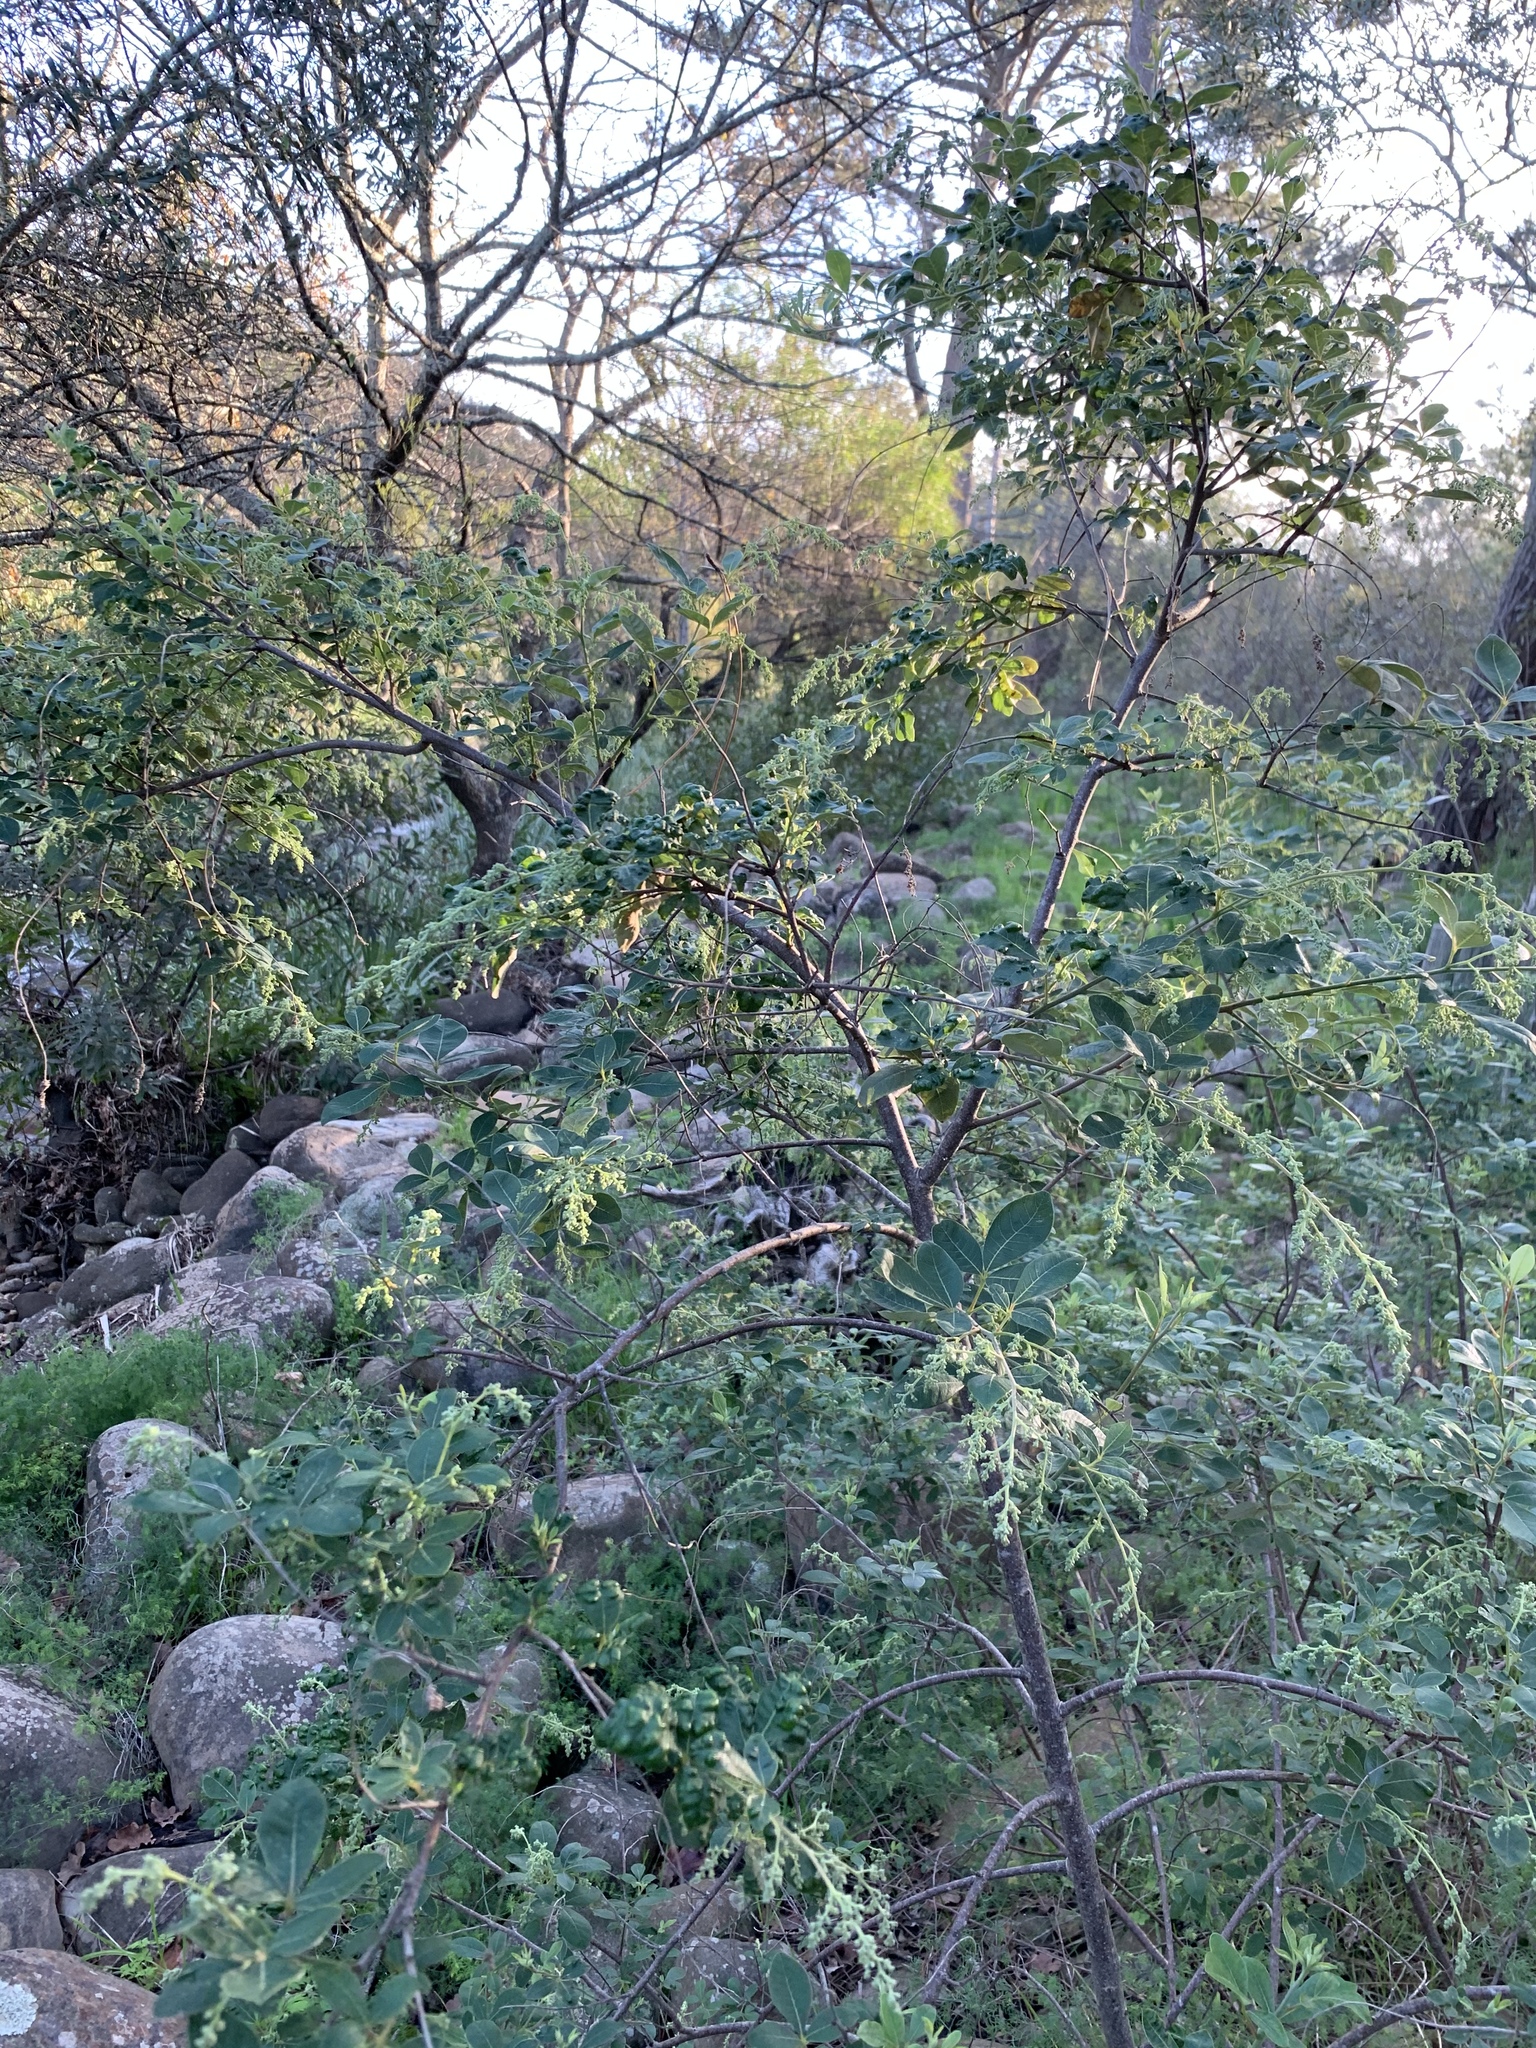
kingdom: Plantae
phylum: Tracheophyta
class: Magnoliopsida
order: Sapindales
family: Anacardiaceae
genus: Searsia
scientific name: Searsia tomentosa
